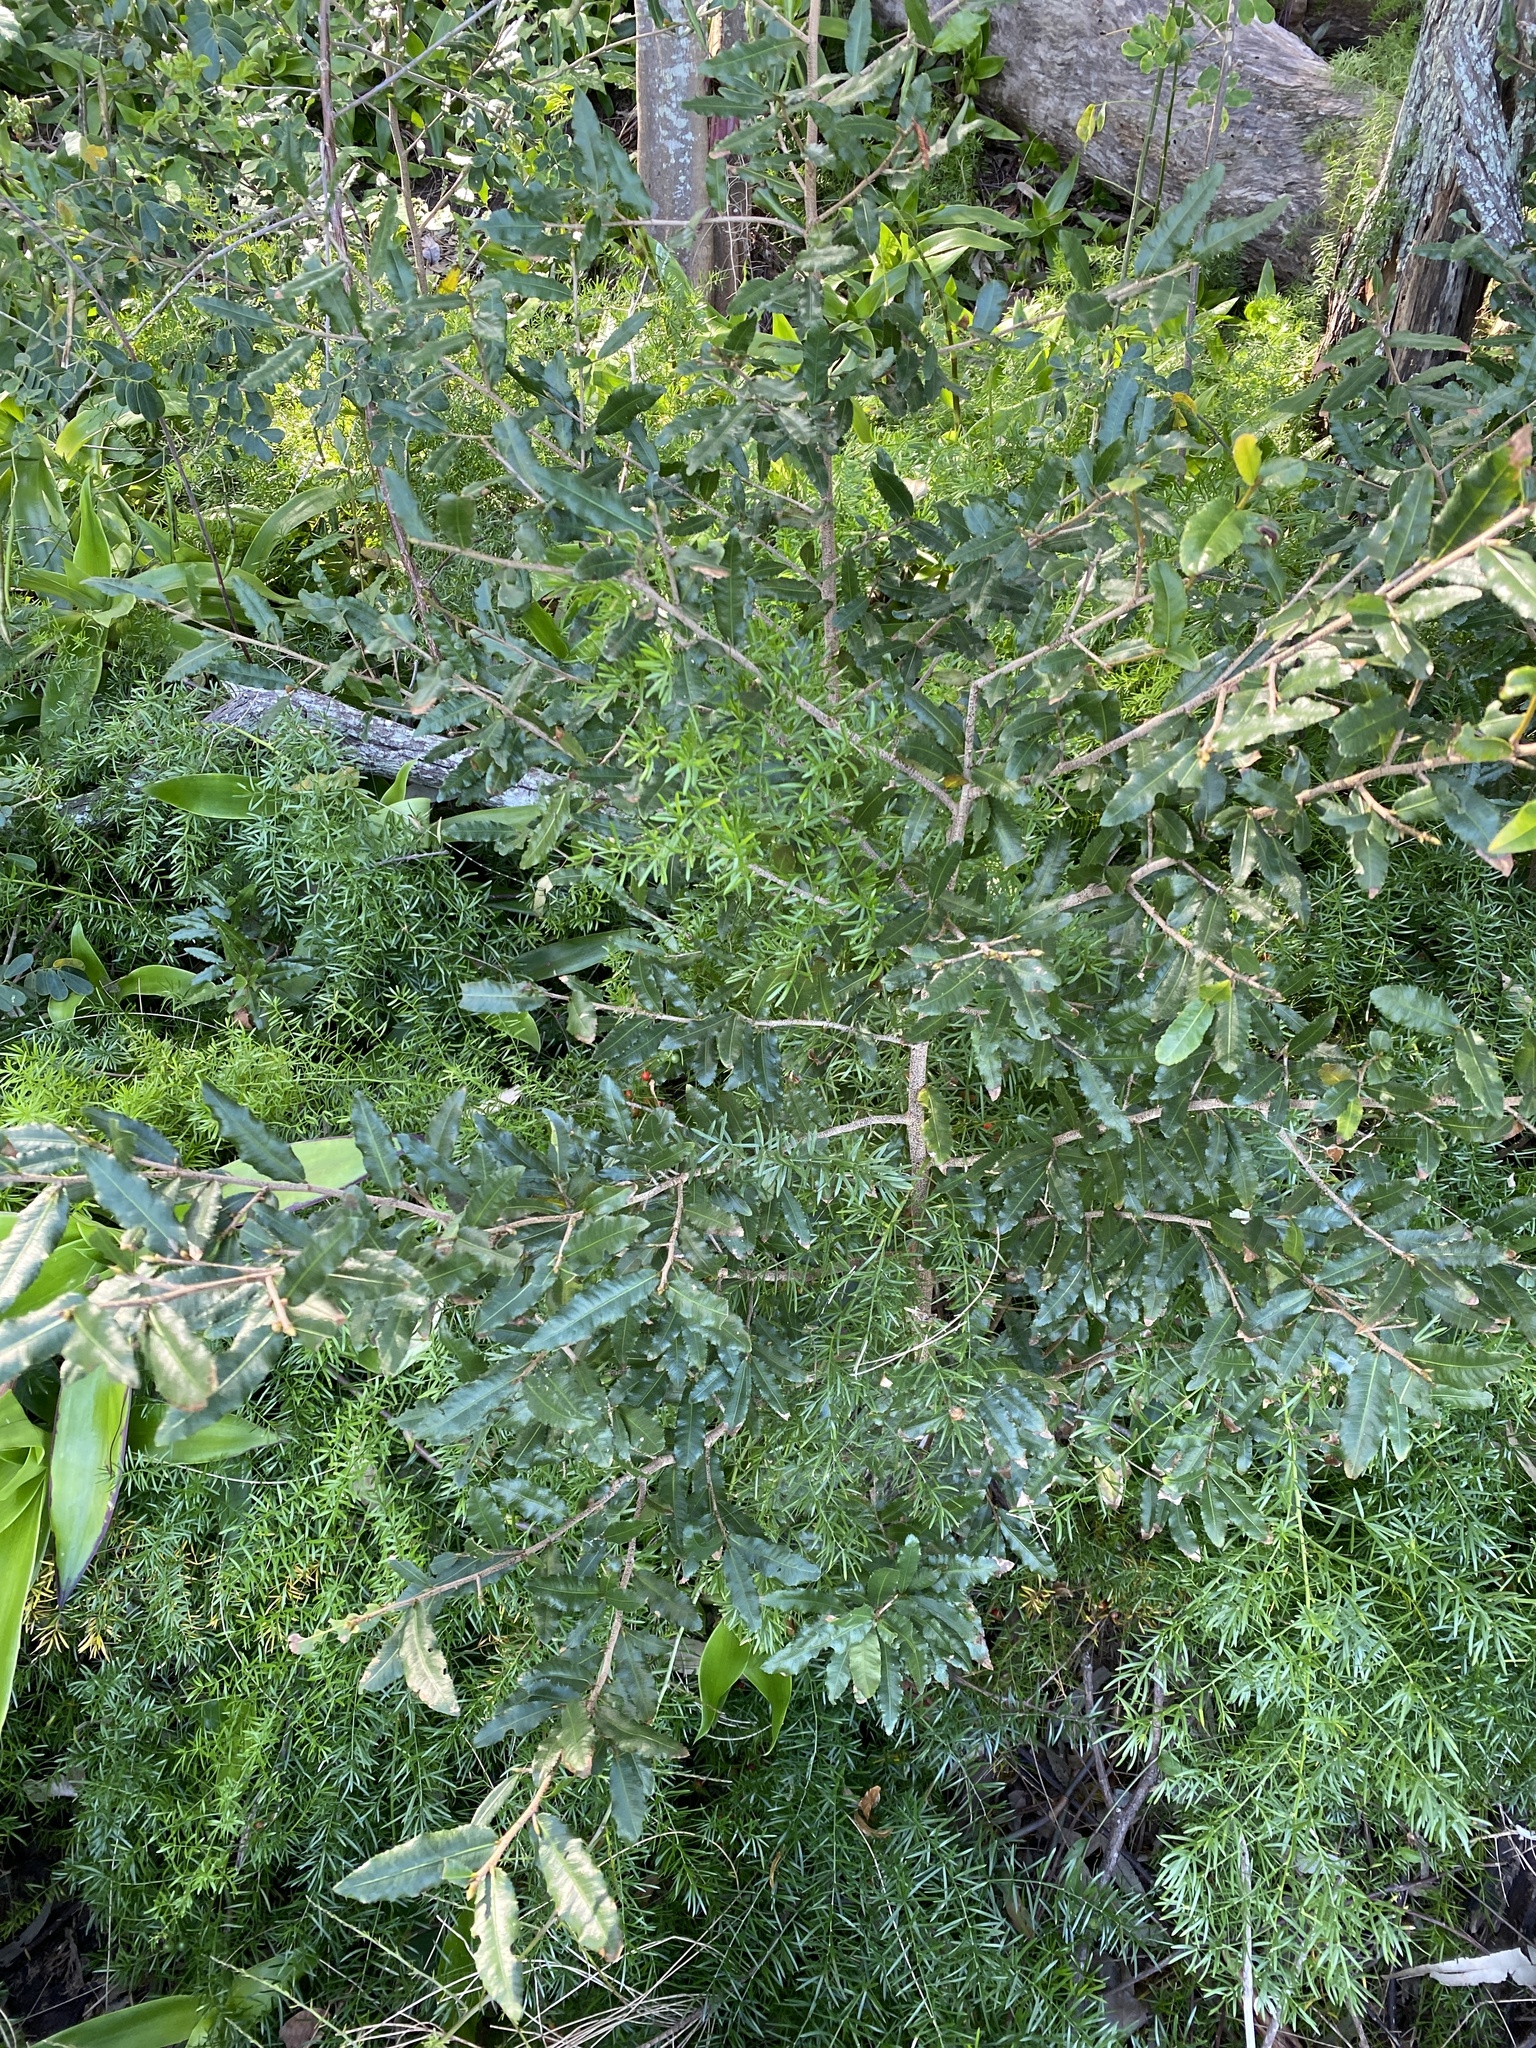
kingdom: Plantae
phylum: Tracheophyta
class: Magnoliopsida
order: Malpighiales
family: Ochnaceae
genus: Ochna
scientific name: Ochna serrulata
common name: Mickey mouse plant
